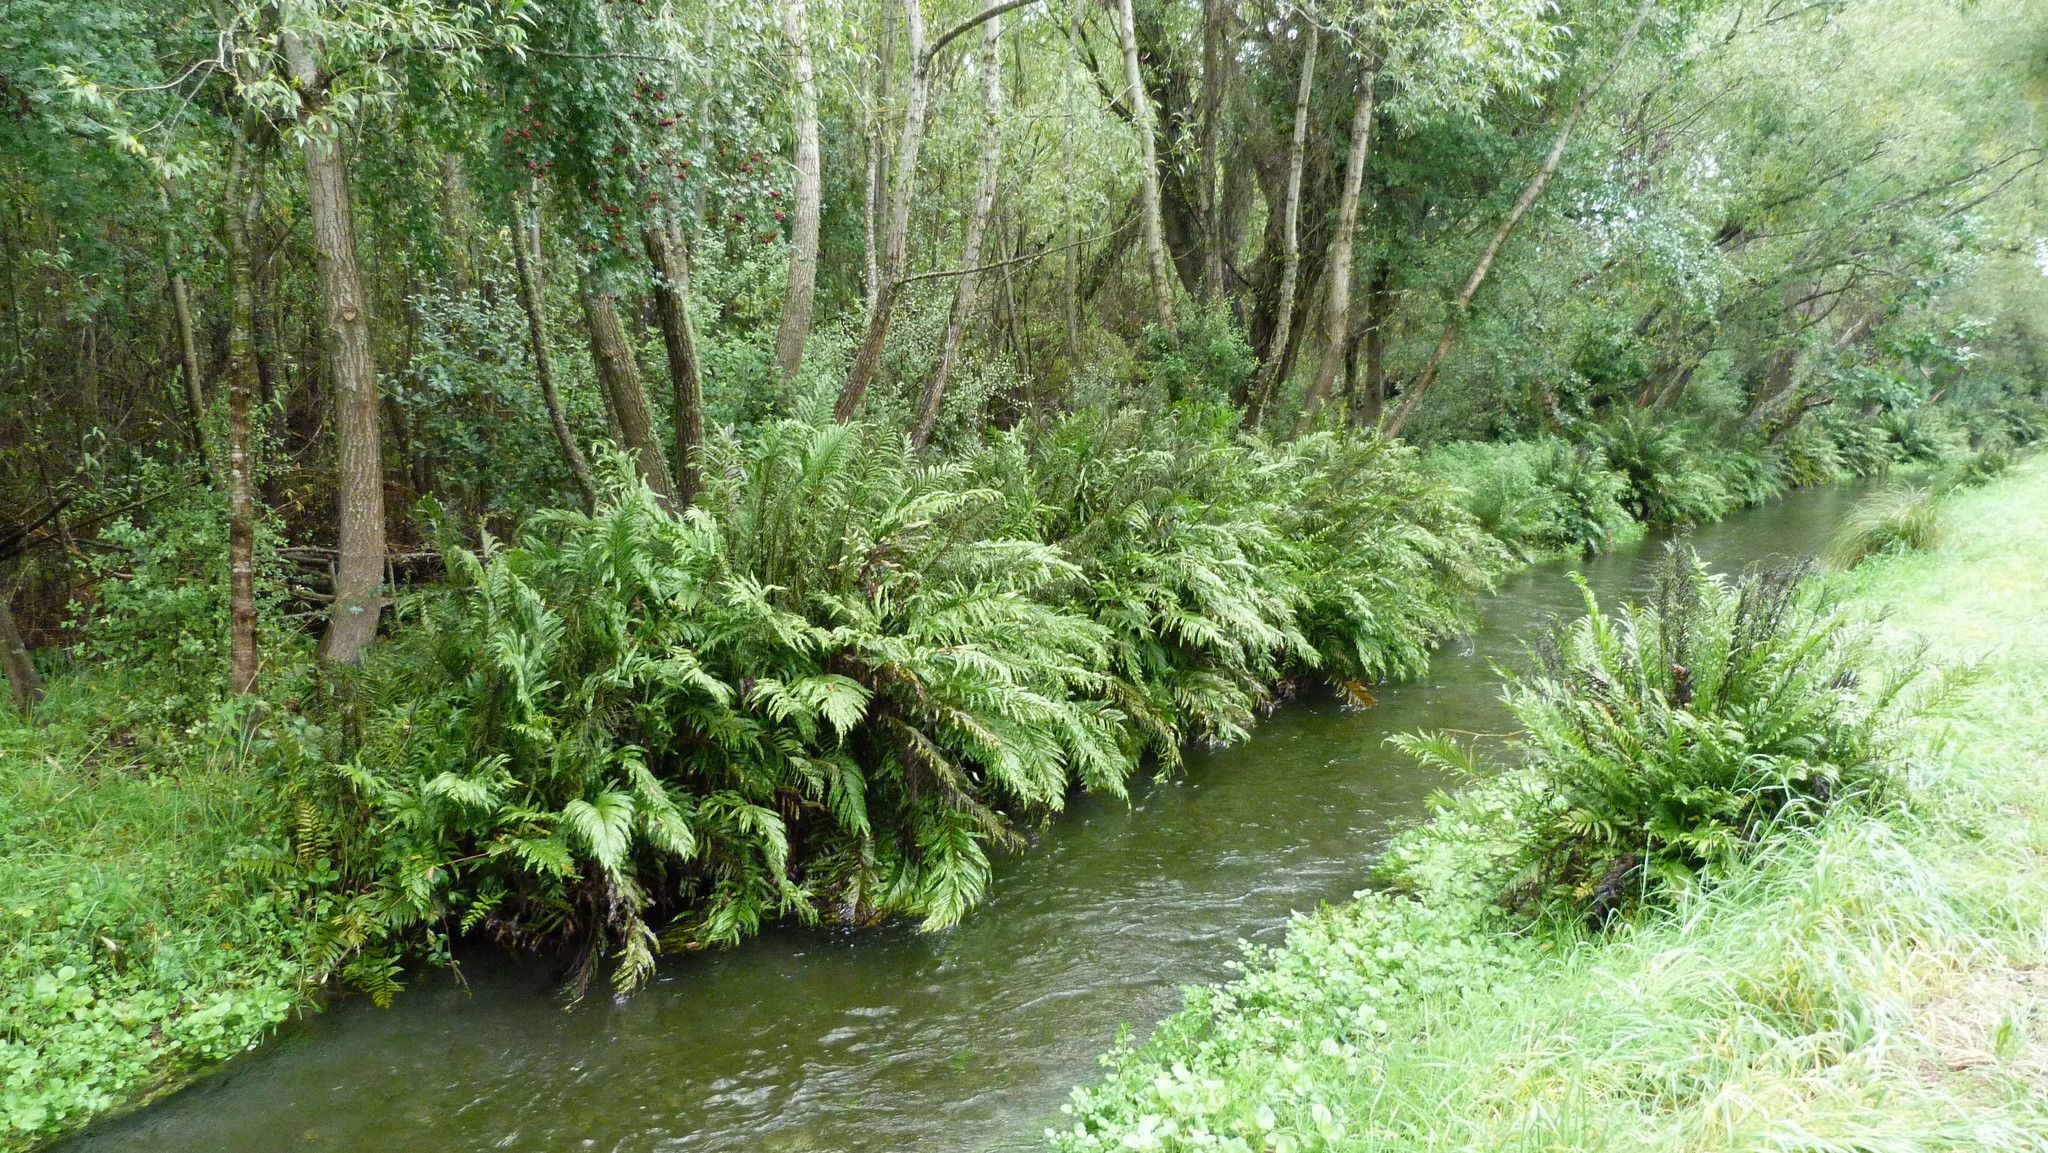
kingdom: Plantae
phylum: Tracheophyta
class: Polypodiopsida
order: Polypodiales
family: Blechnaceae
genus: Parablechnum
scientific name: Parablechnum minus
